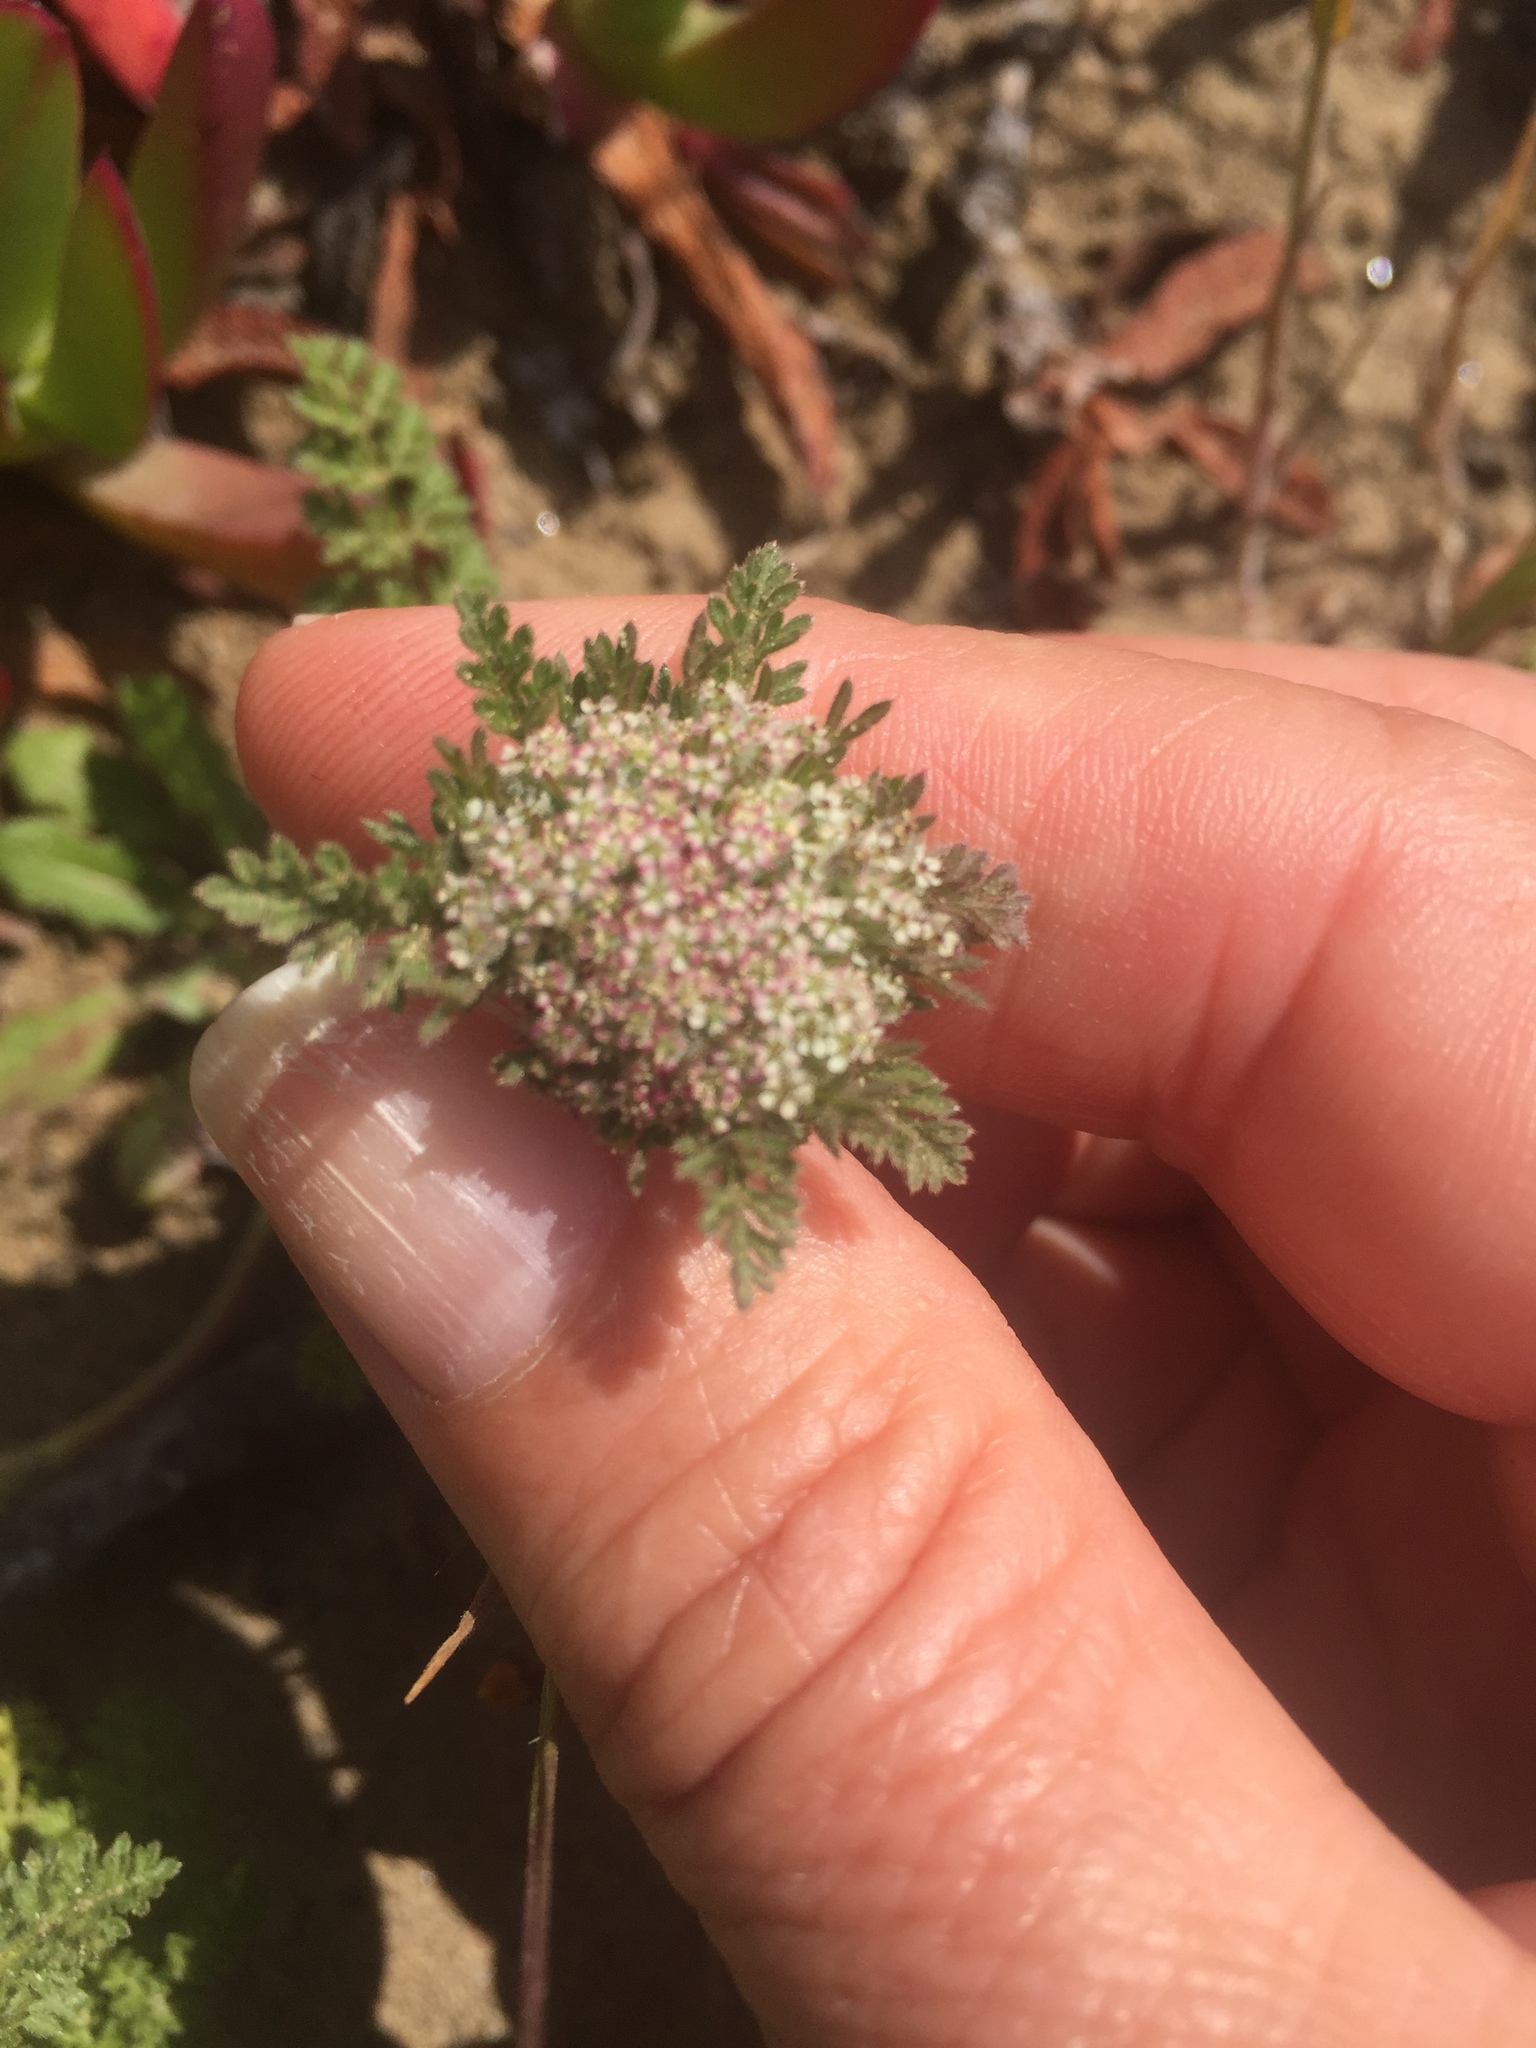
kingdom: Plantae
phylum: Tracheophyta
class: Magnoliopsida
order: Apiales
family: Apiaceae
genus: Daucus
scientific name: Daucus pusillus
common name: Southwest wild carrot
